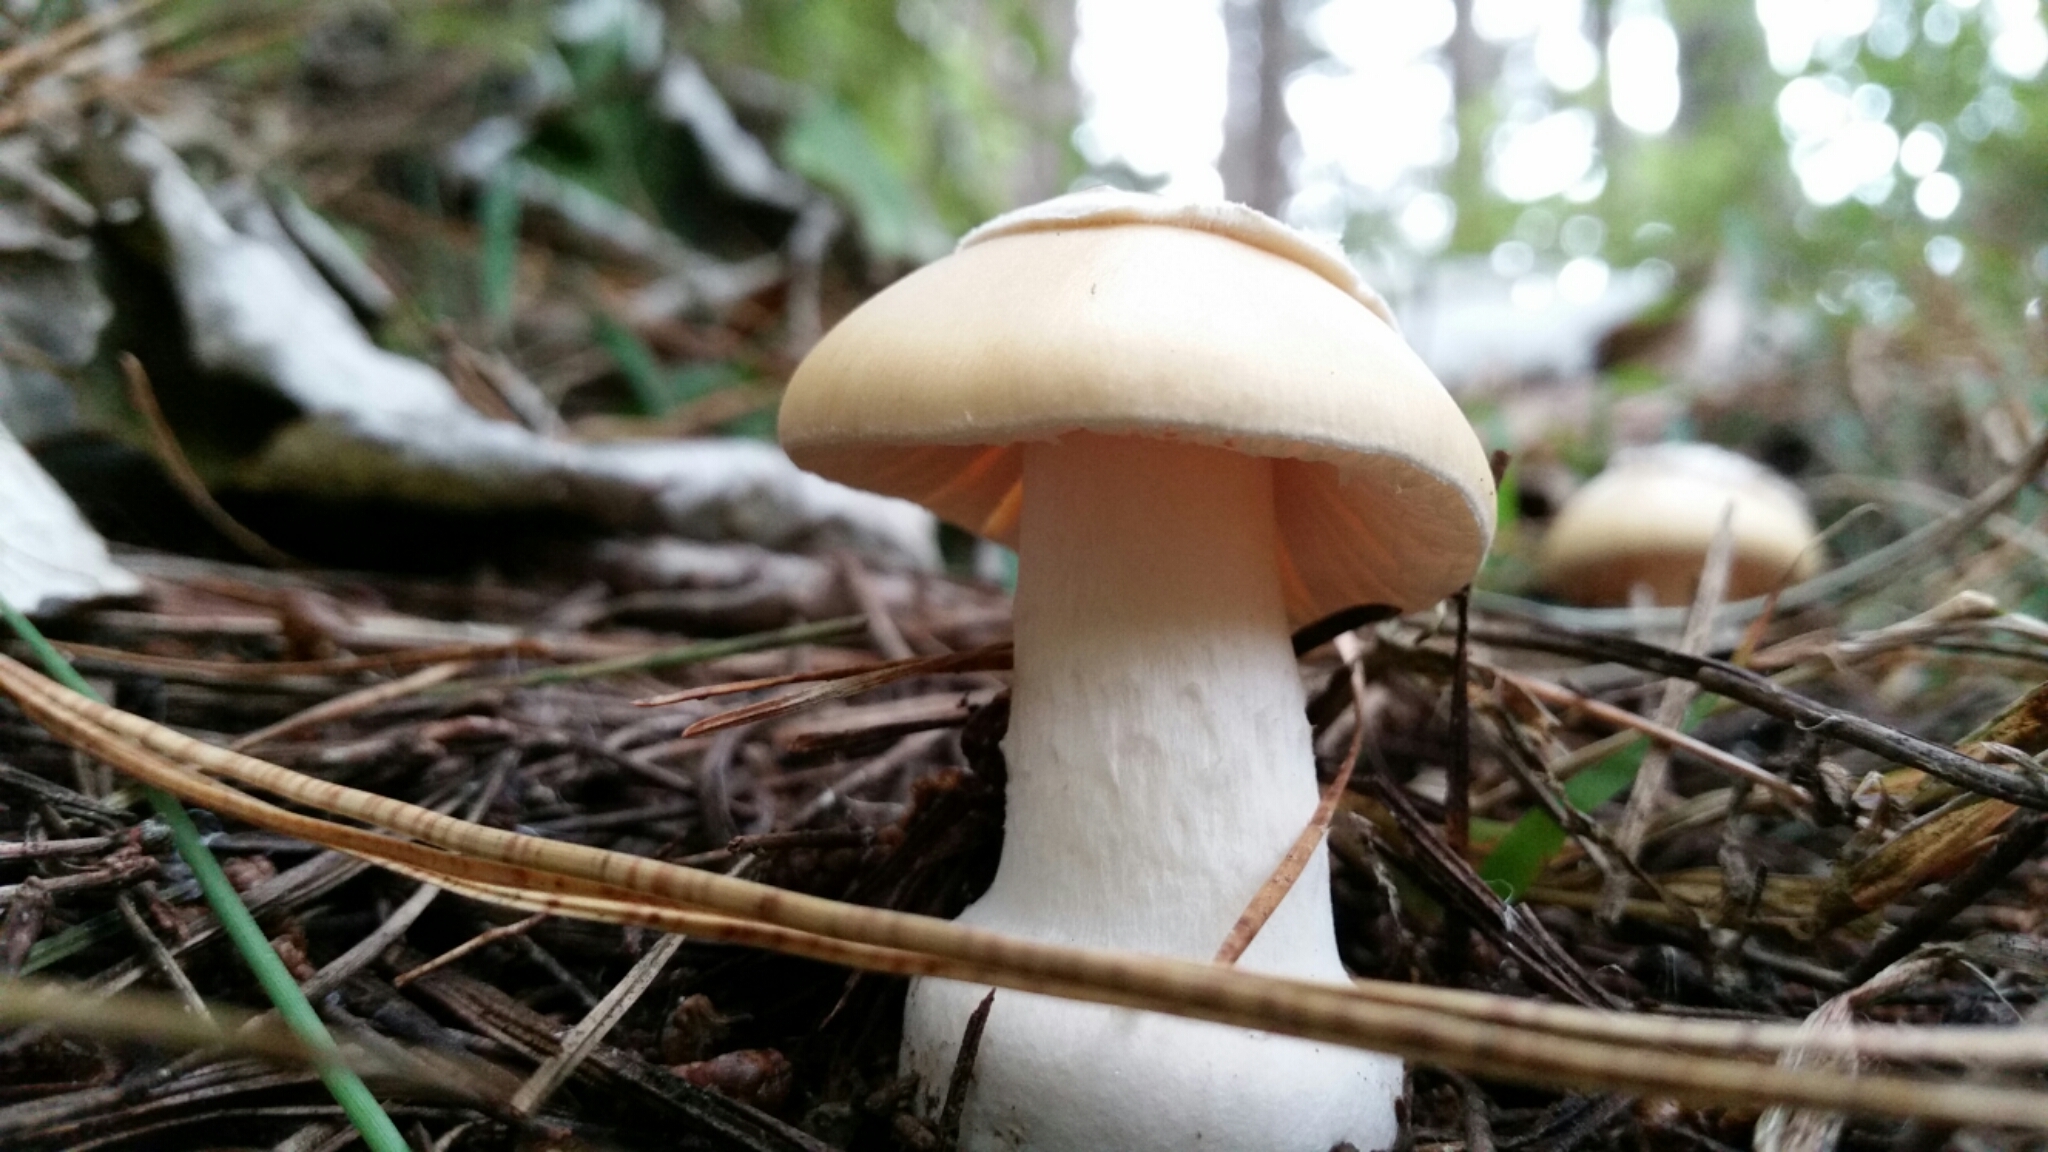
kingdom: Fungi
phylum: Basidiomycota
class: Agaricomycetes
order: Agaricales
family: Amanitaceae
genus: Amanita
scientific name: Amanita gemmata
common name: Jewelled amanita
